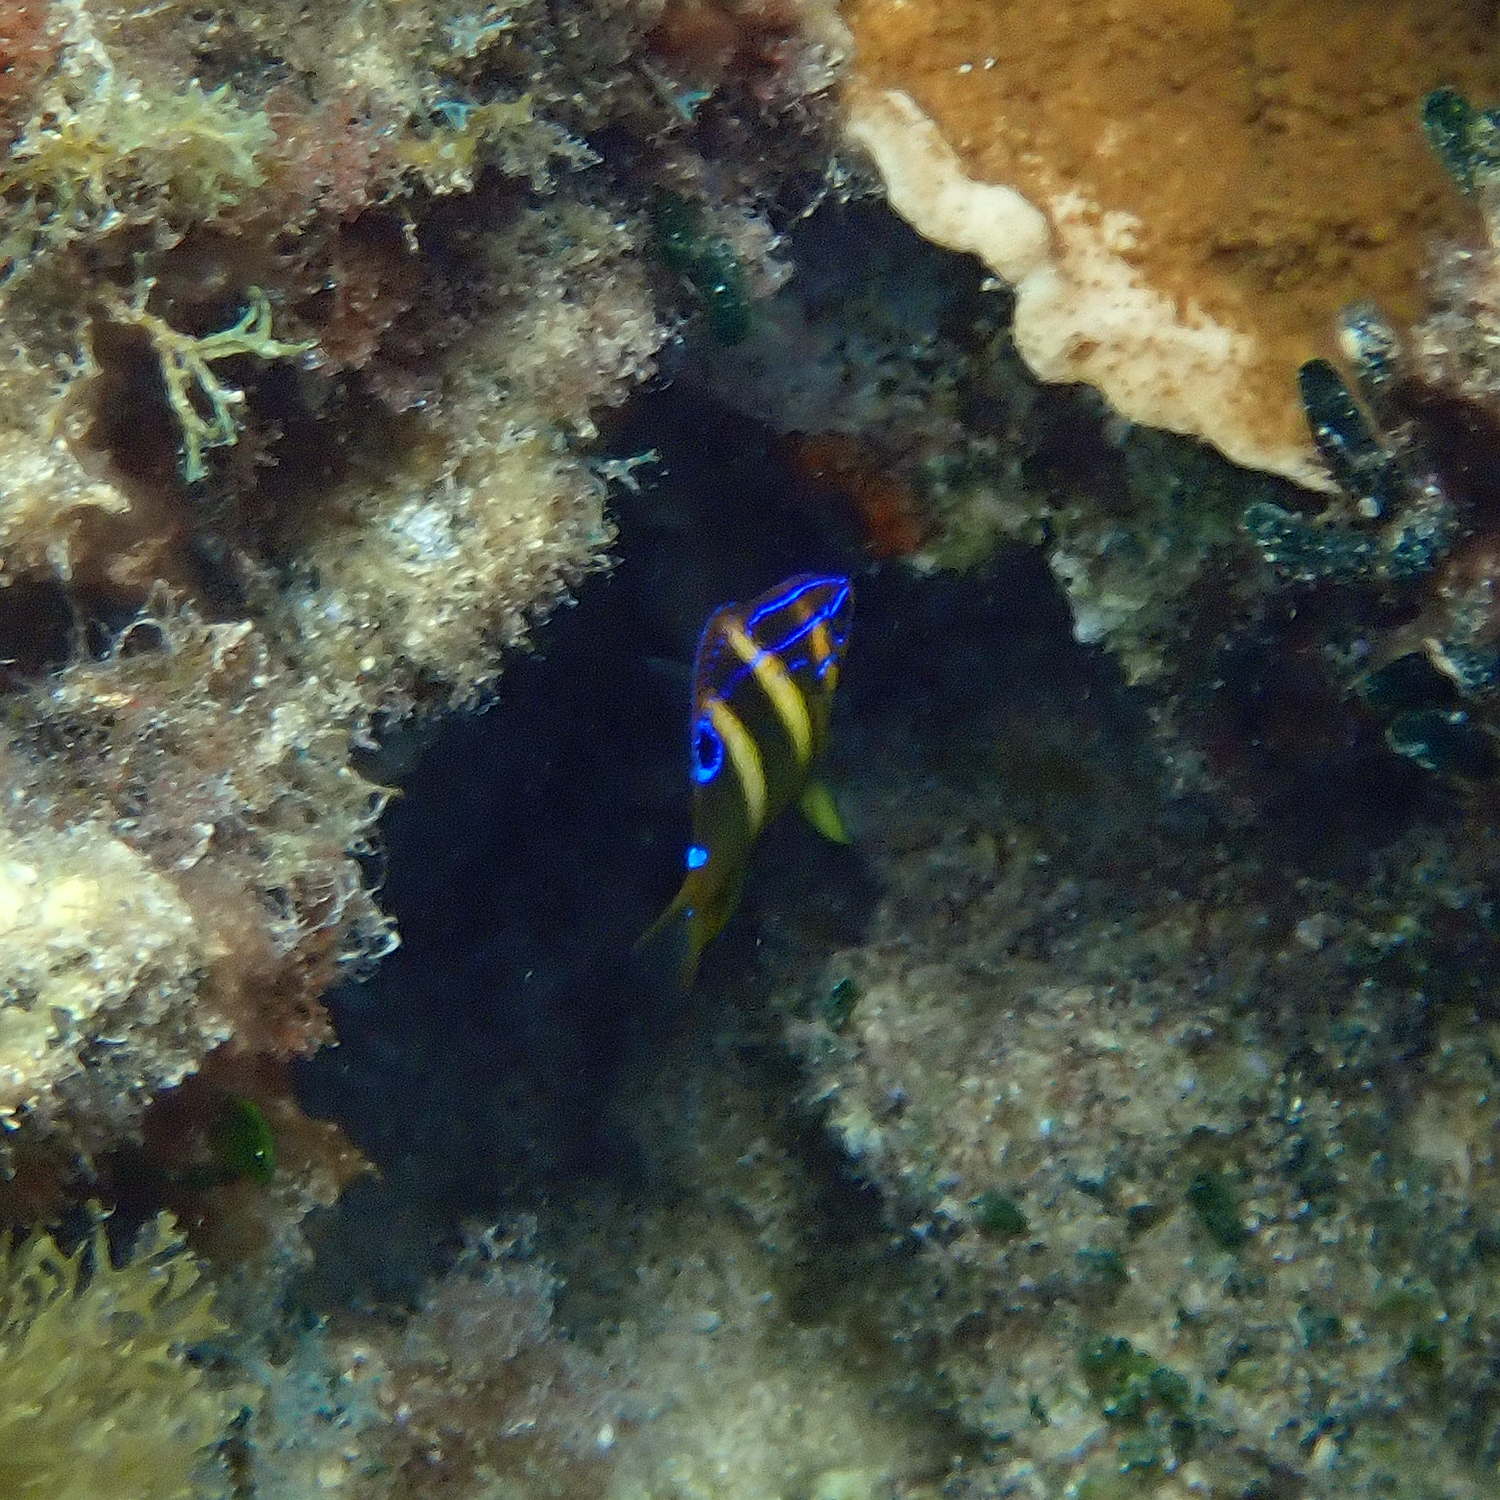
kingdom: Animalia
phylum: Chordata
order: Perciformes
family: Pomacentridae
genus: Parma
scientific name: Parma polylepis
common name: Banded parma
